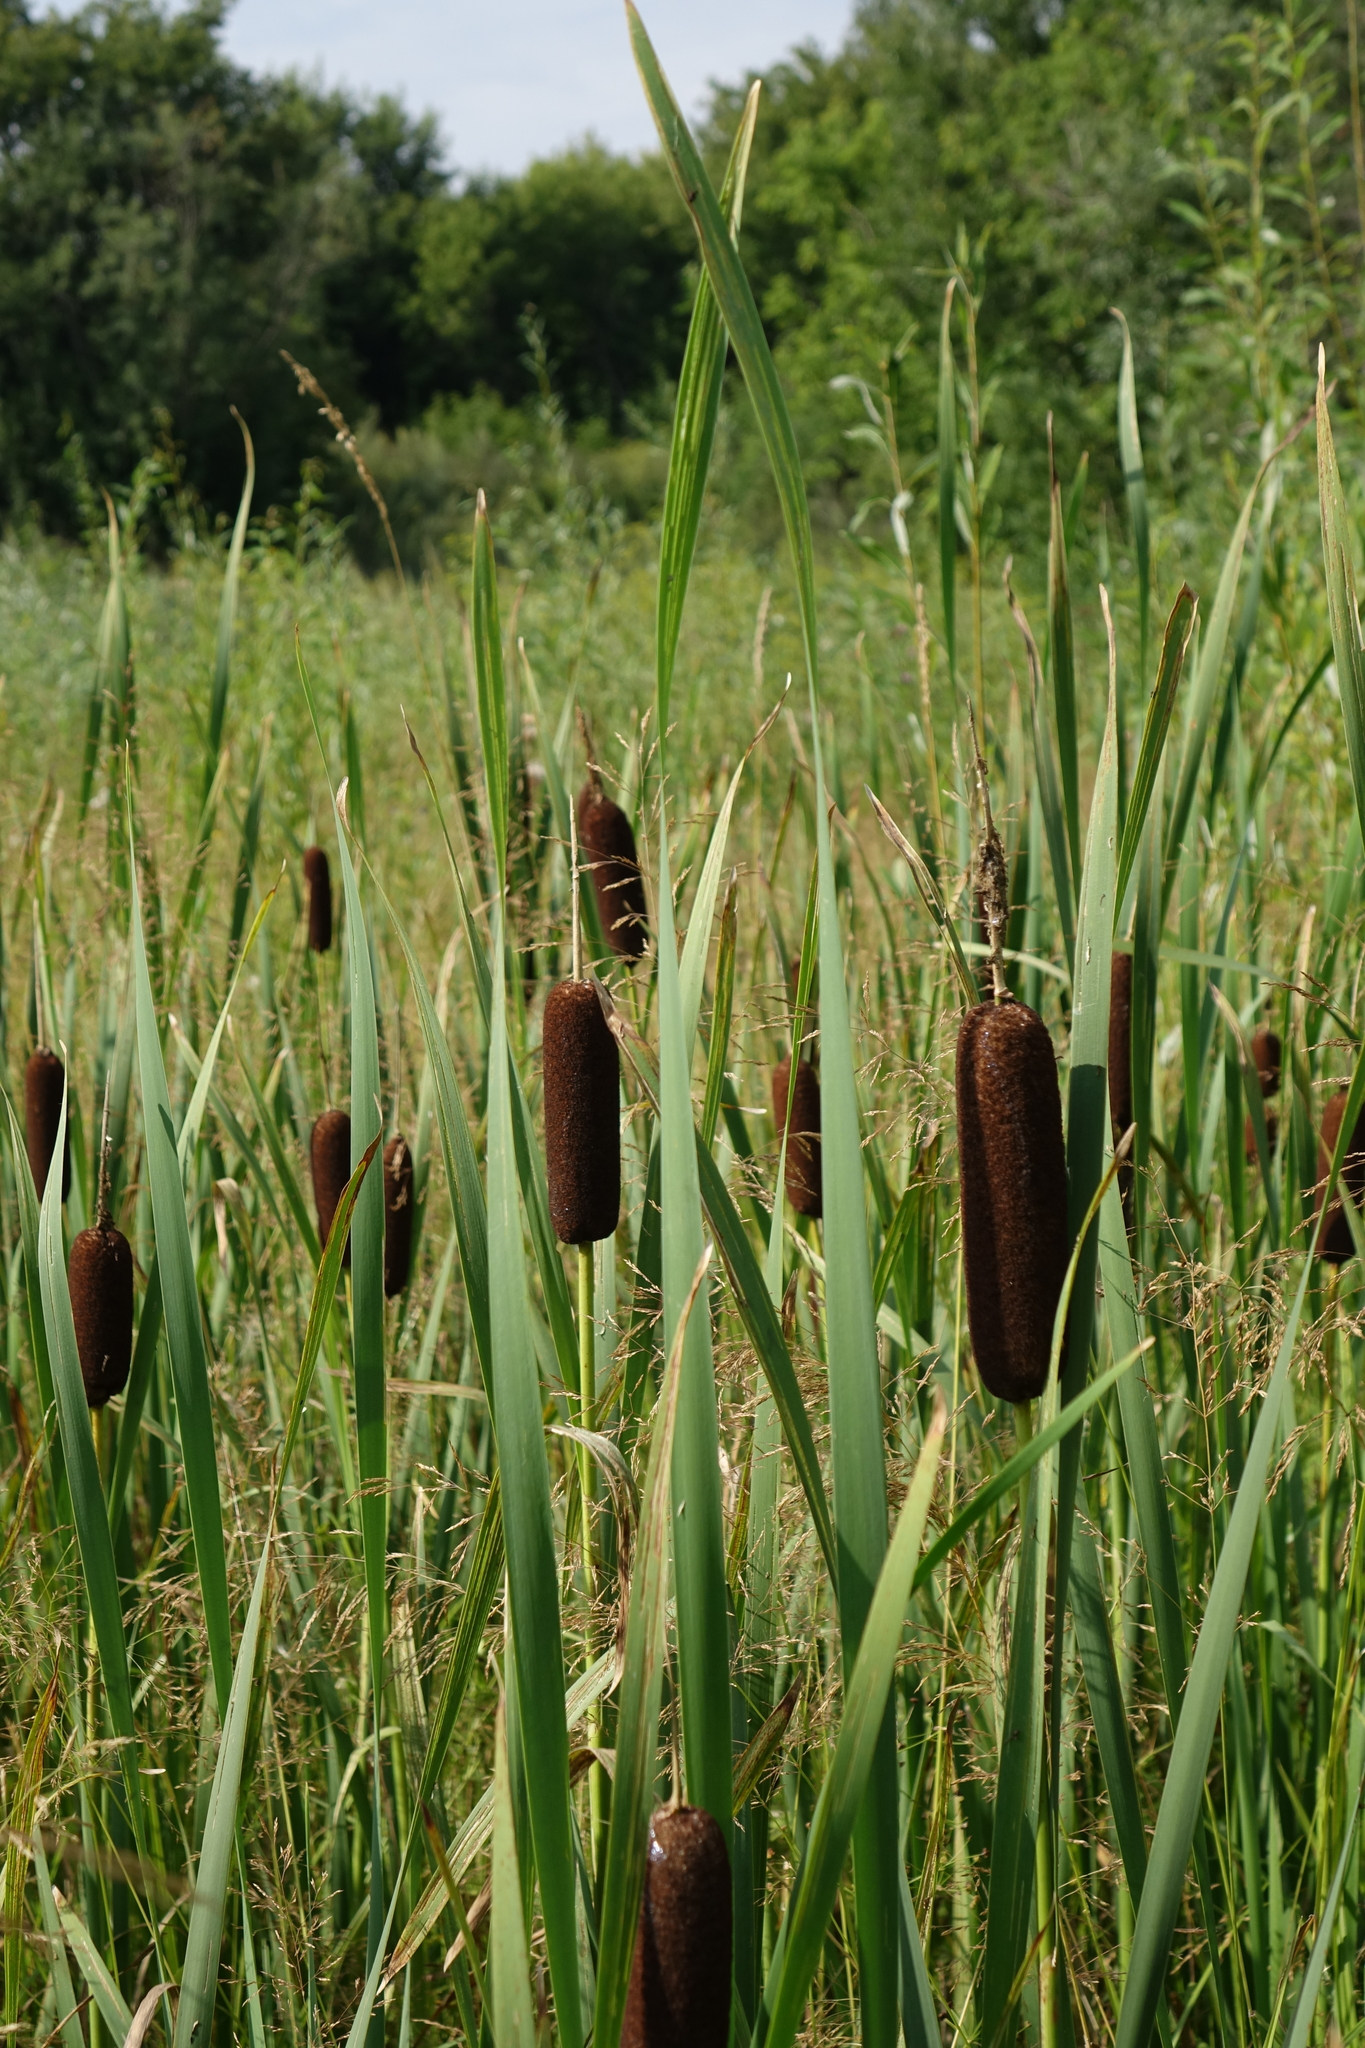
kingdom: Plantae
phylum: Tracheophyta
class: Liliopsida
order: Poales
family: Typhaceae
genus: Typha
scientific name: Typha latifolia
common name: Broadleaf cattail
